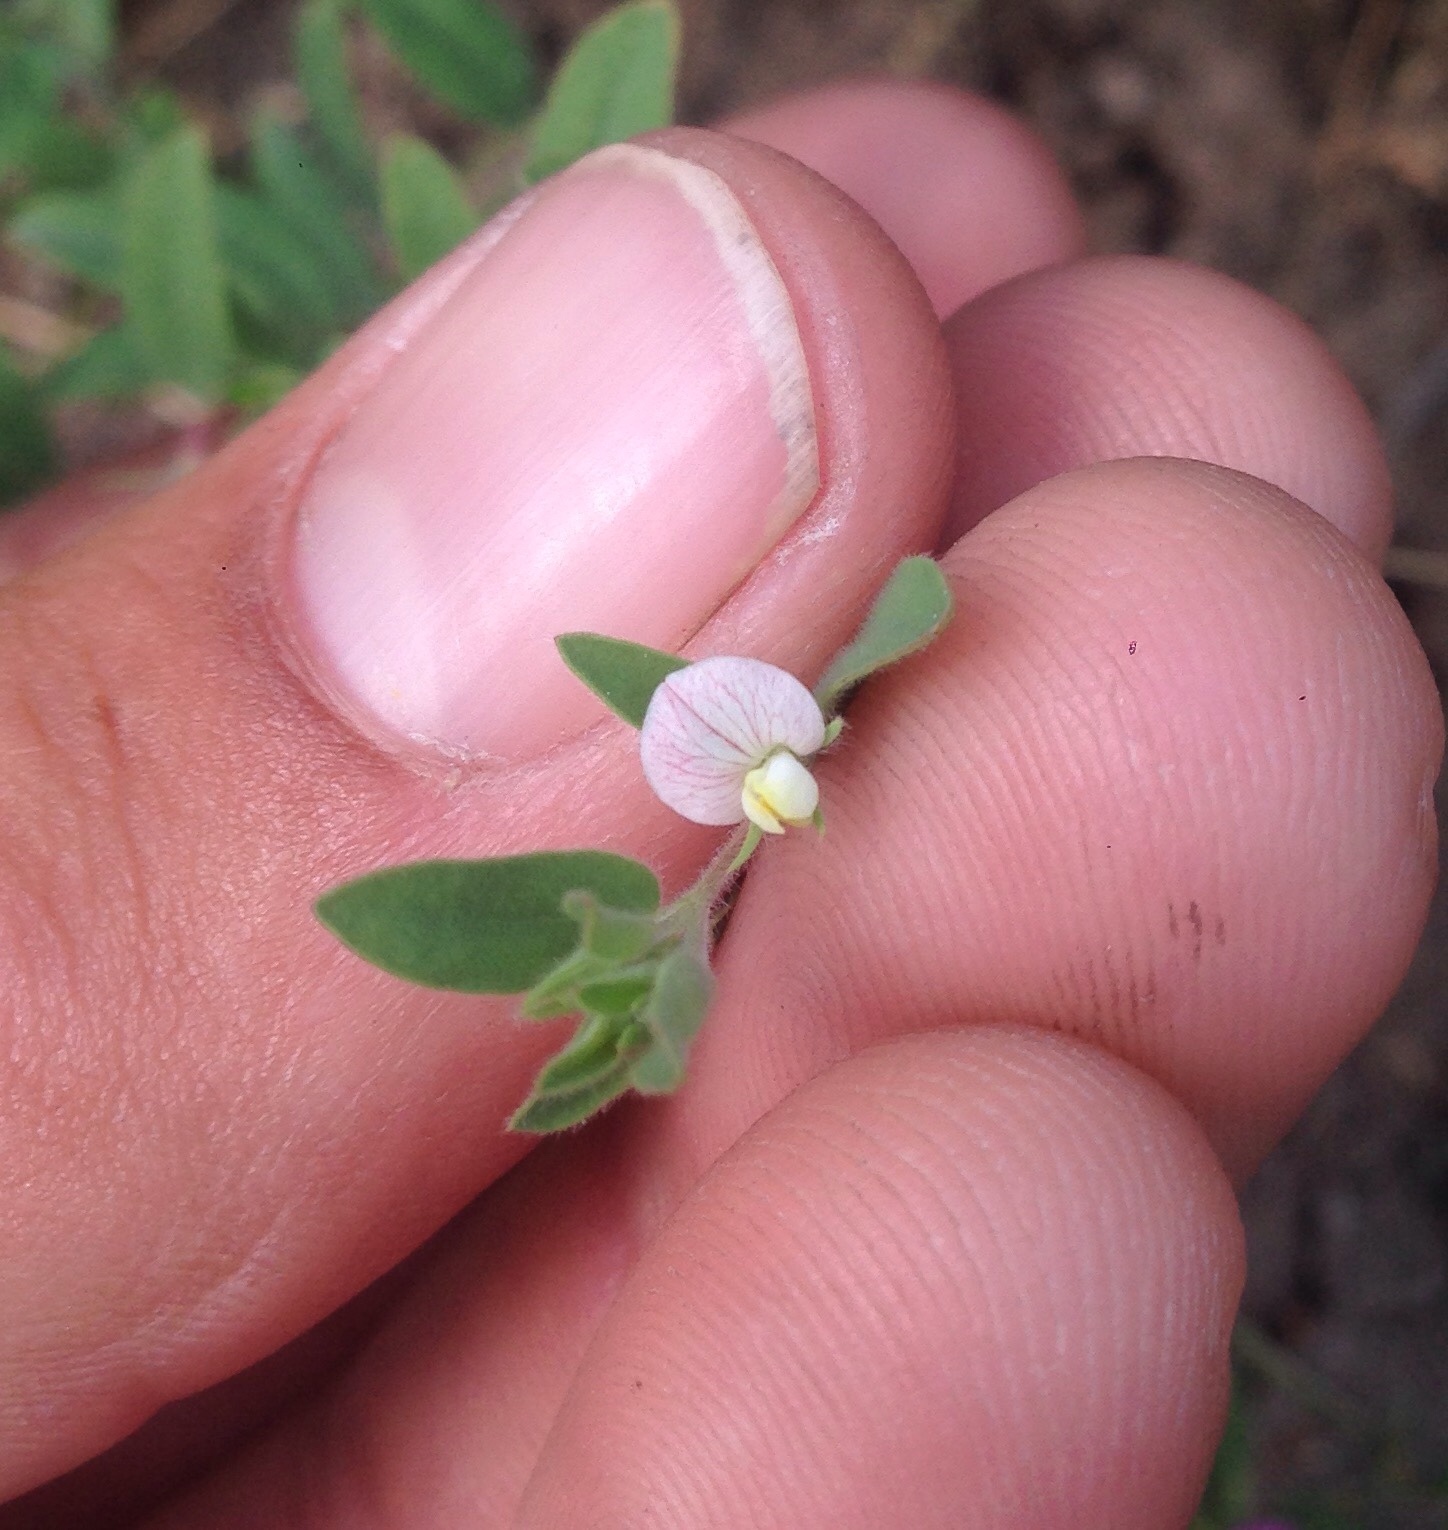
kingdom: Plantae
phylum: Tracheophyta
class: Magnoliopsida
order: Fabales
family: Fabaceae
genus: Acmispon
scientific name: Acmispon americanus
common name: American bird's-foot trefoil
